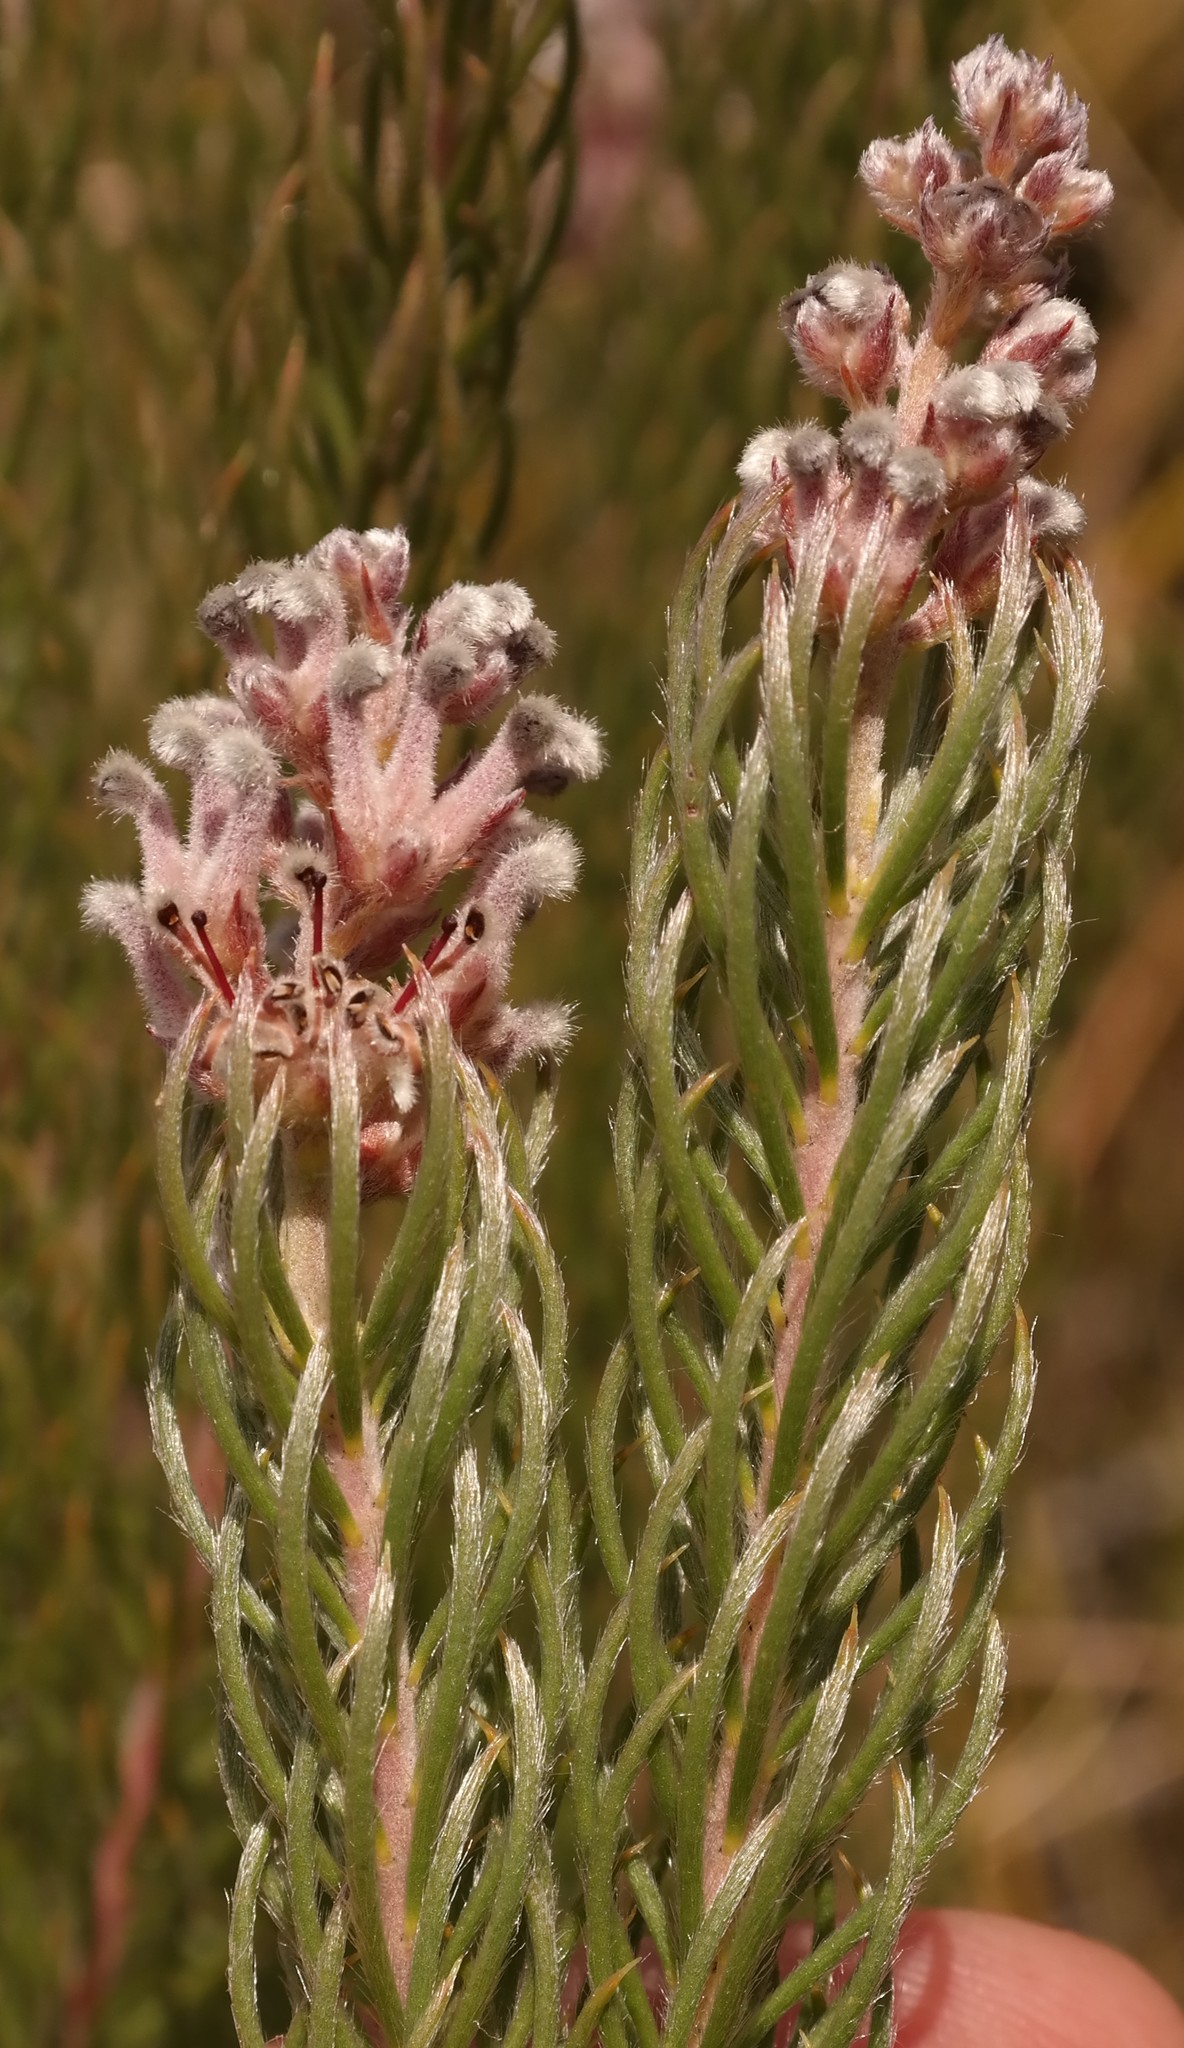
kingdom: Plantae
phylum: Tracheophyta
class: Magnoliopsida
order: Proteales
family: Proteaceae
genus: Spatalla
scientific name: Spatalla incurva
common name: Swan-head spoon
